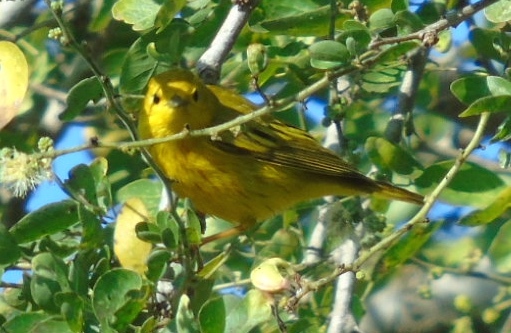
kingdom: Animalia
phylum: Chordata
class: Aves
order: Passeriformes
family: Parulidae
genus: Setophaga
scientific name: Setophaga petechia
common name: Yellow warbler
